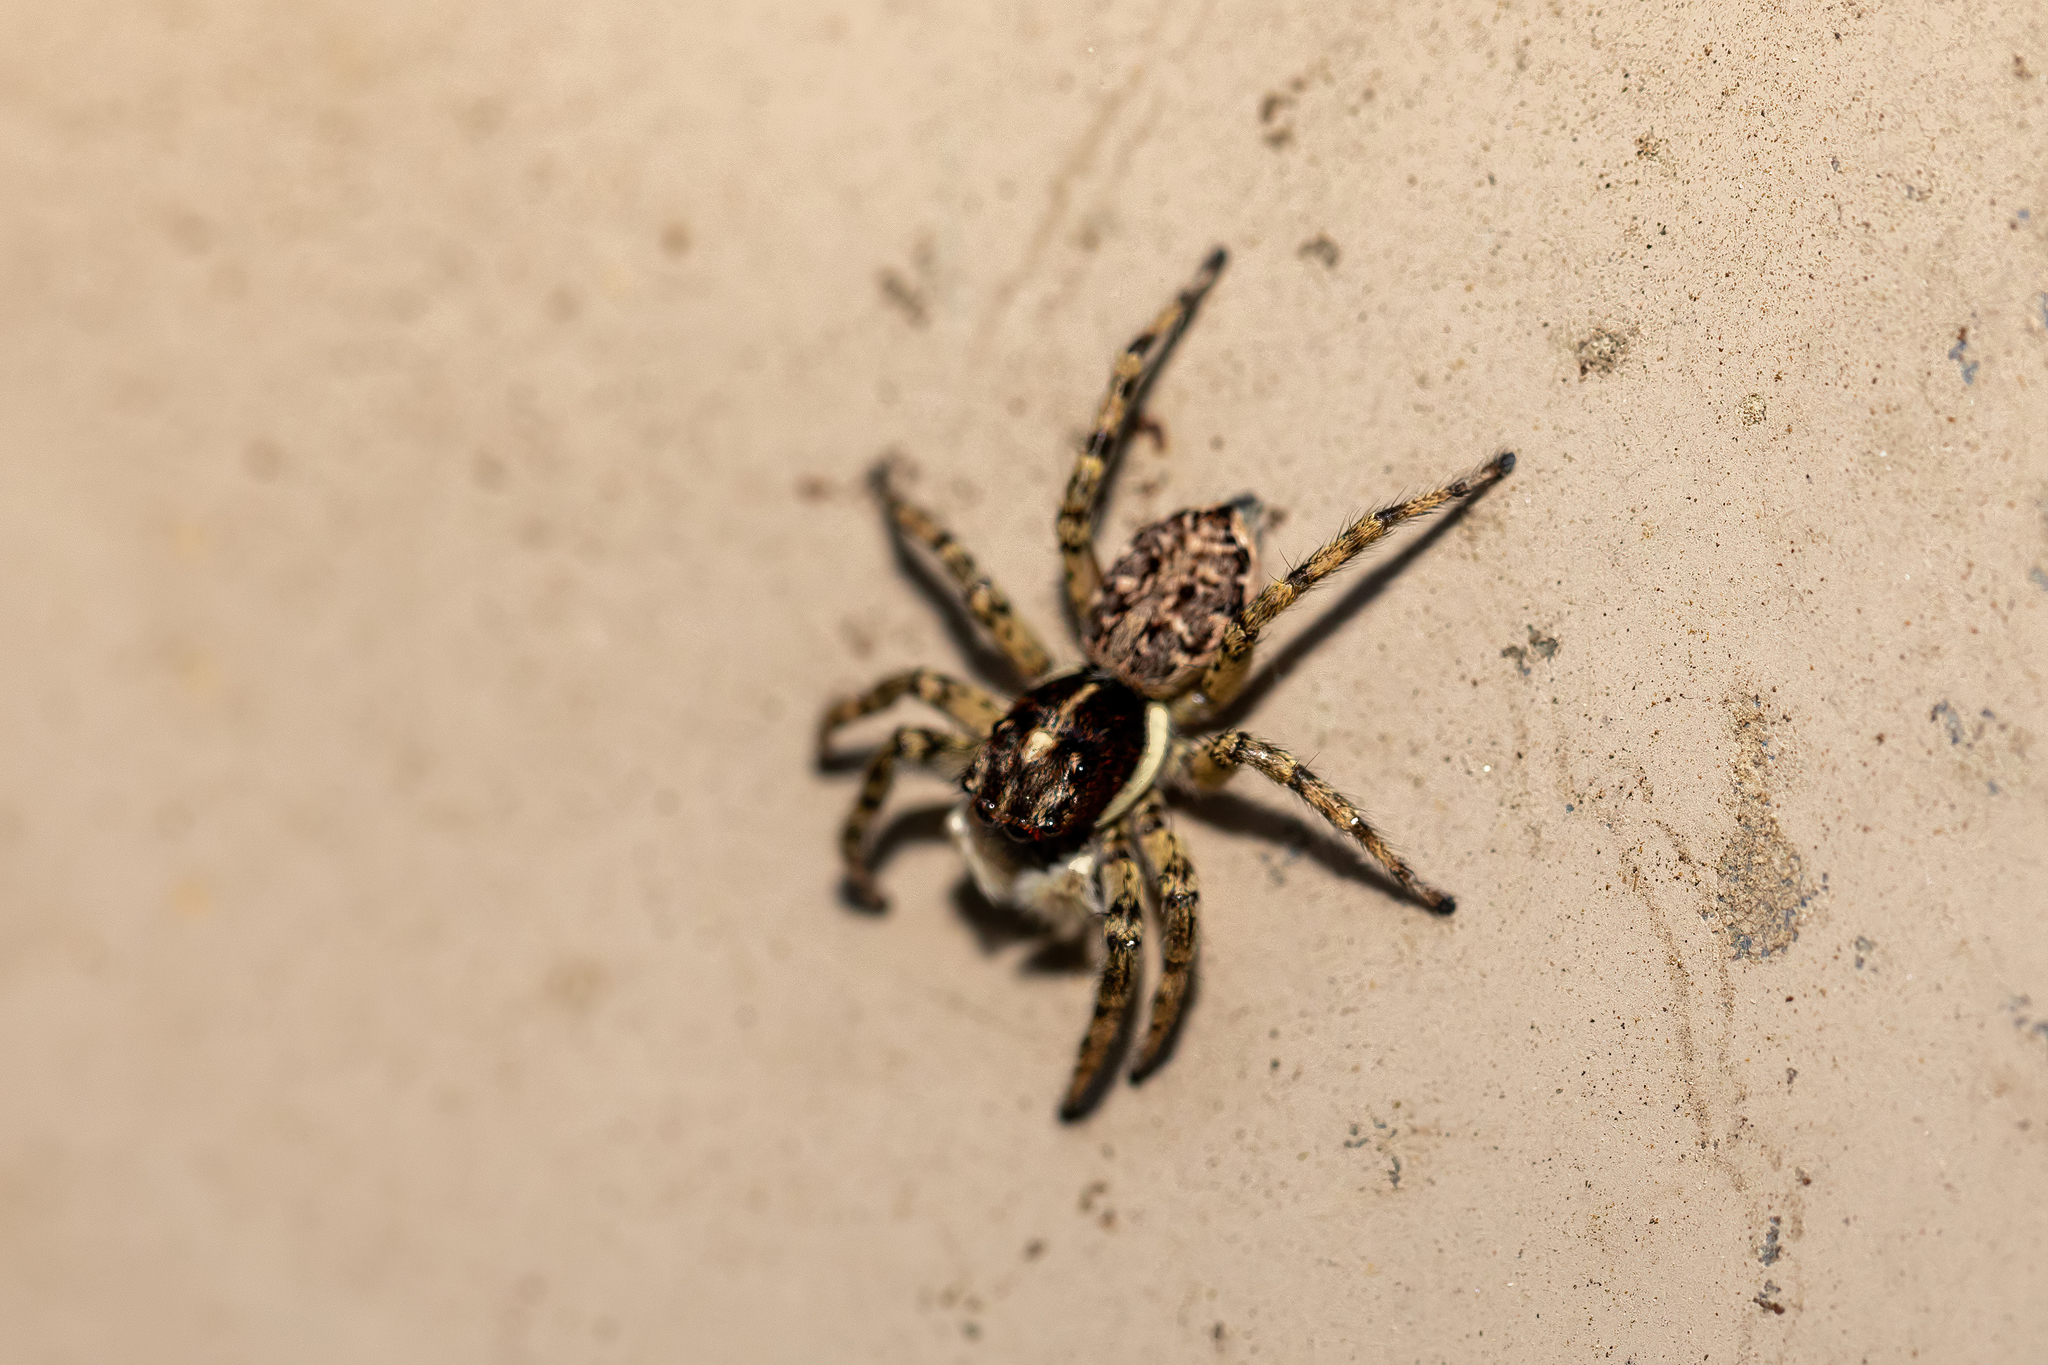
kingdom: Animalia
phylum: Arthropoda
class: Arachnida
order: Araneae
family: Salticidae
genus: Menemerus
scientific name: Menemerus semilimbatus
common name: Jumping spider
